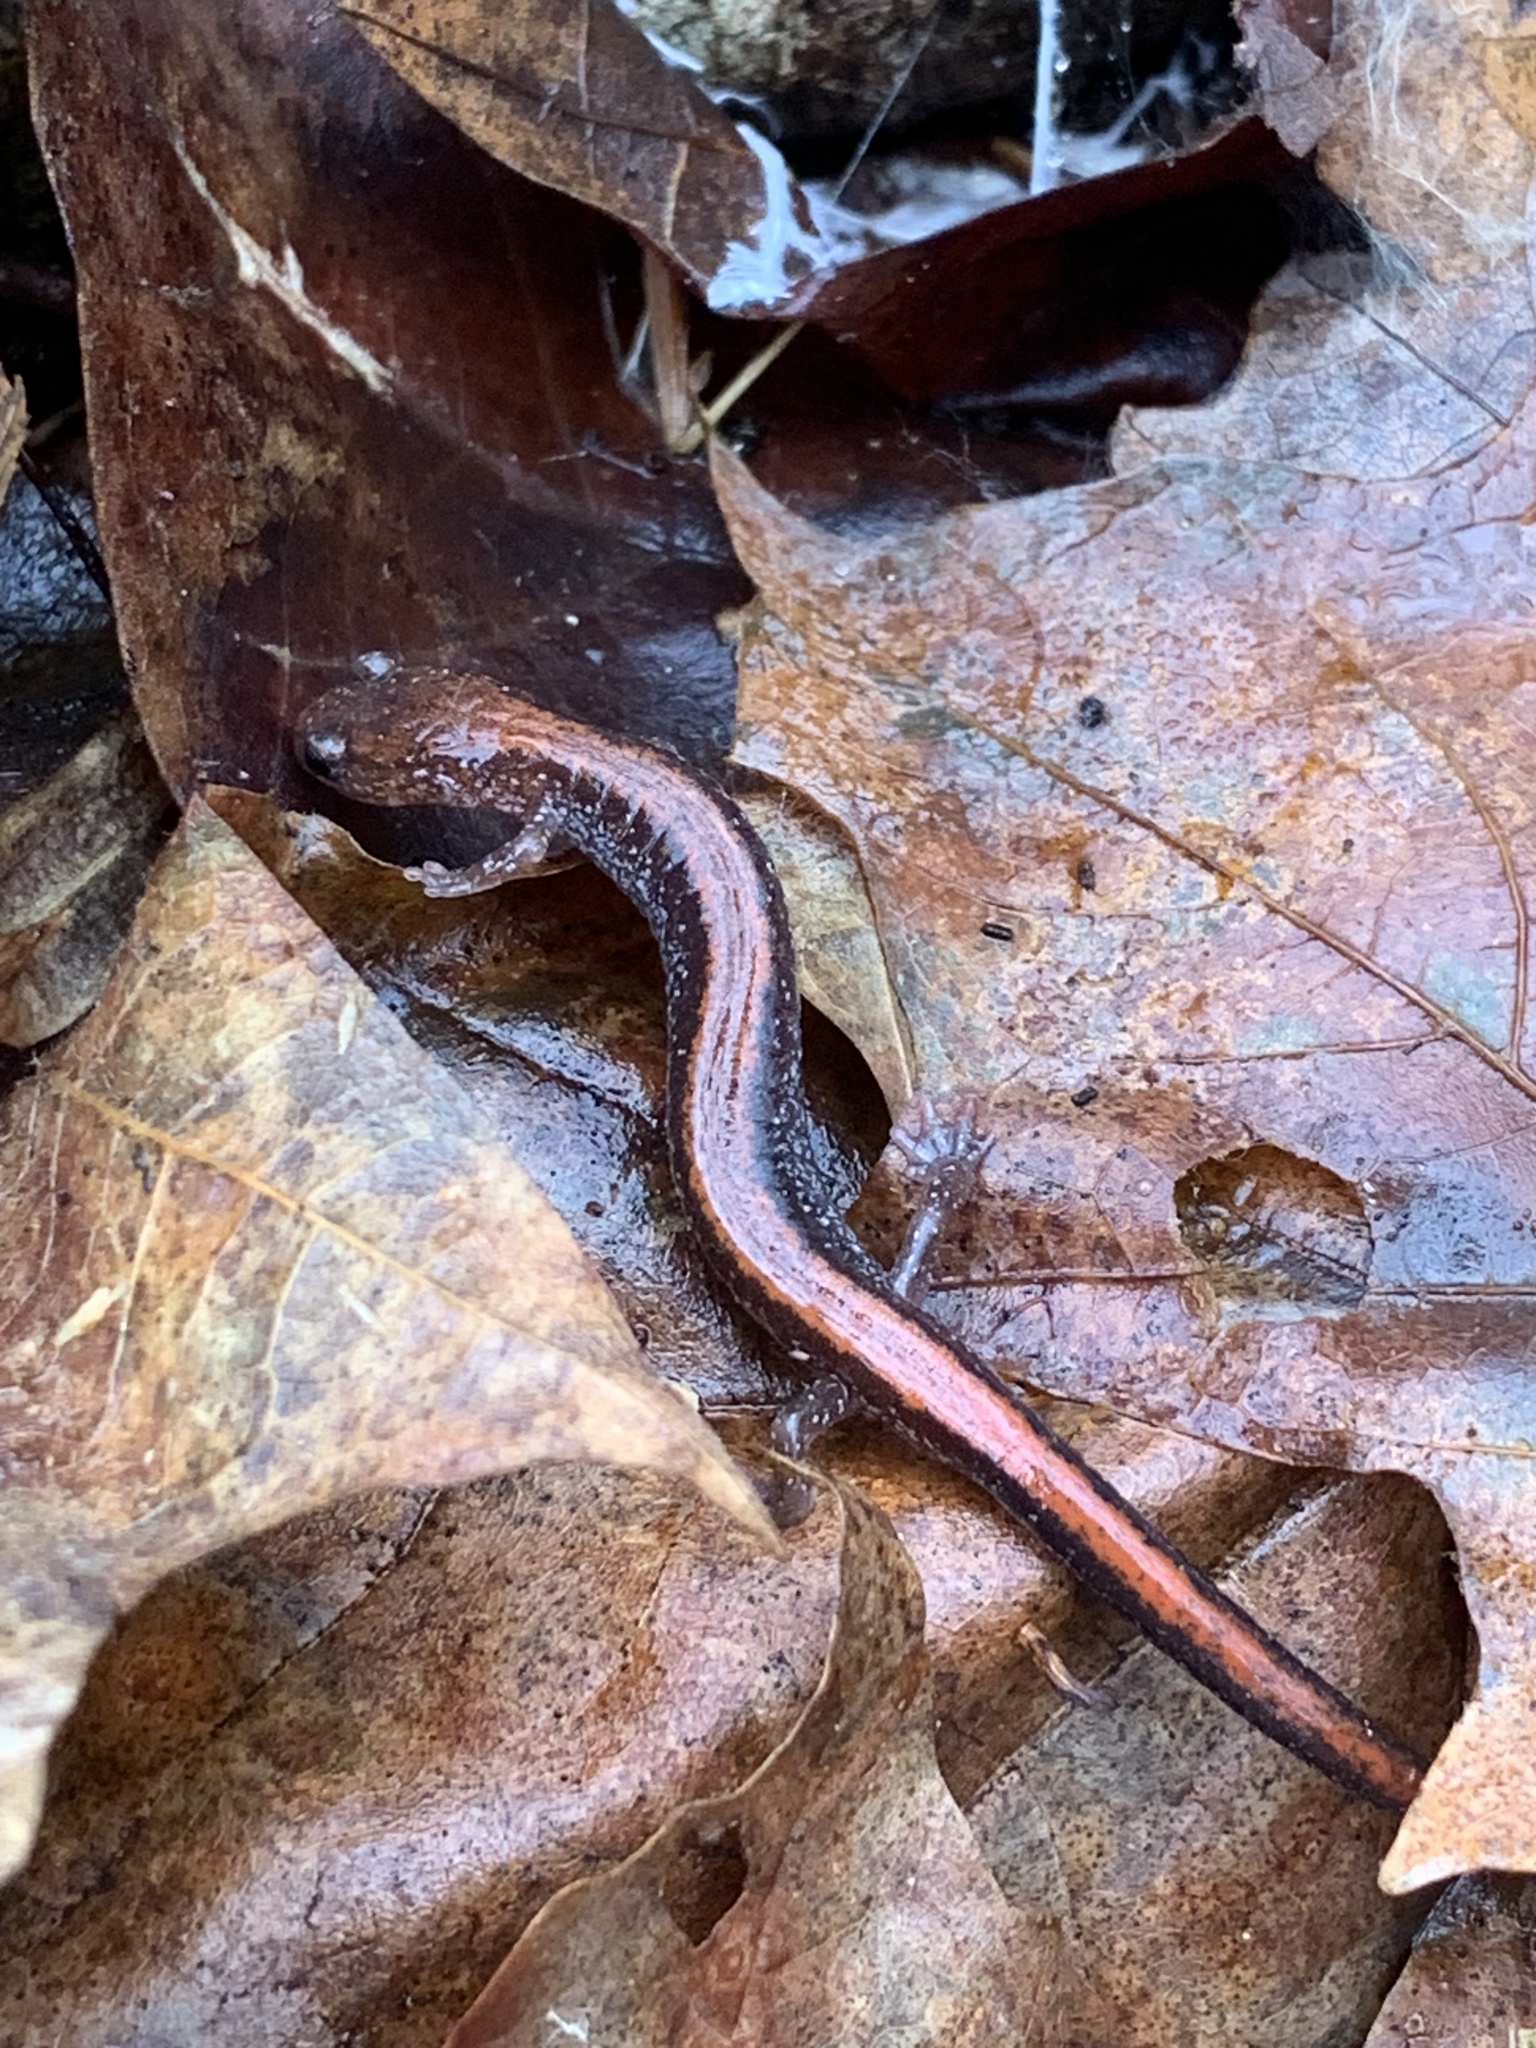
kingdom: Animalia
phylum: Chordata
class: Amphibia
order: Caudata
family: Plethodontidae
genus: Plethodon
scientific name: Plethodon cinereus
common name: Redback salamander
